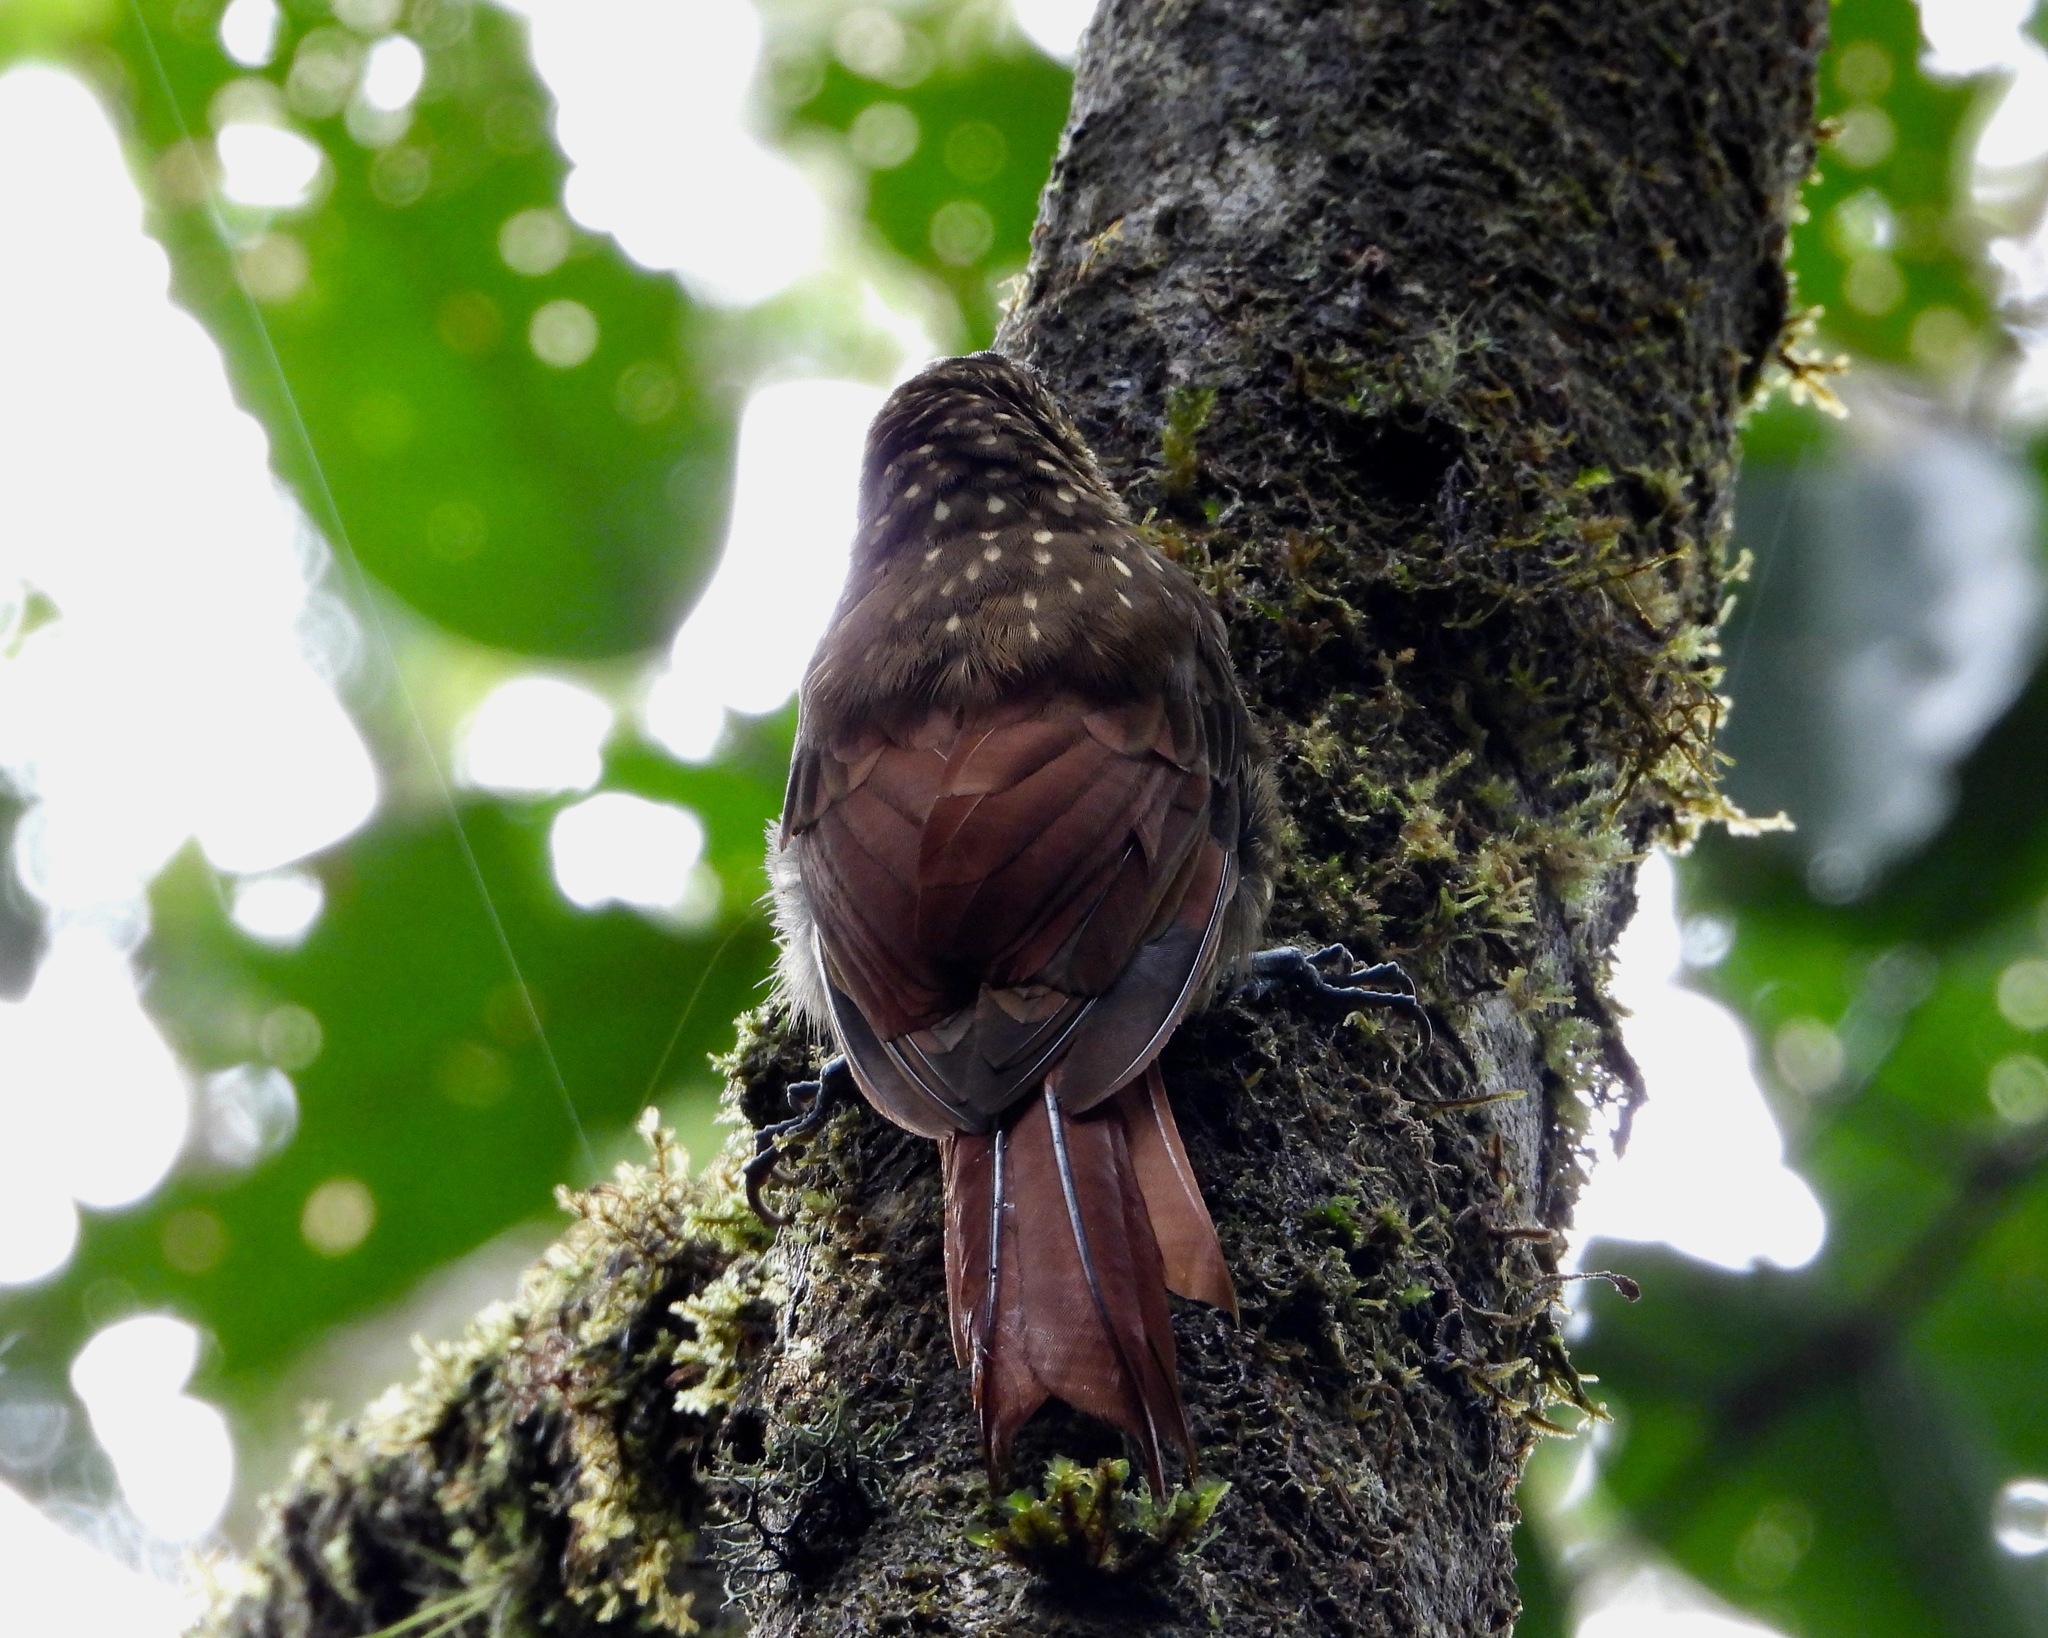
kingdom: Animalia
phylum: Chordata
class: Aves
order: Passeriformes
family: Furnariidae
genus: Xiphorhynchus
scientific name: Xiphorhynchus erythropygius
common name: Spotted woodcreeper
